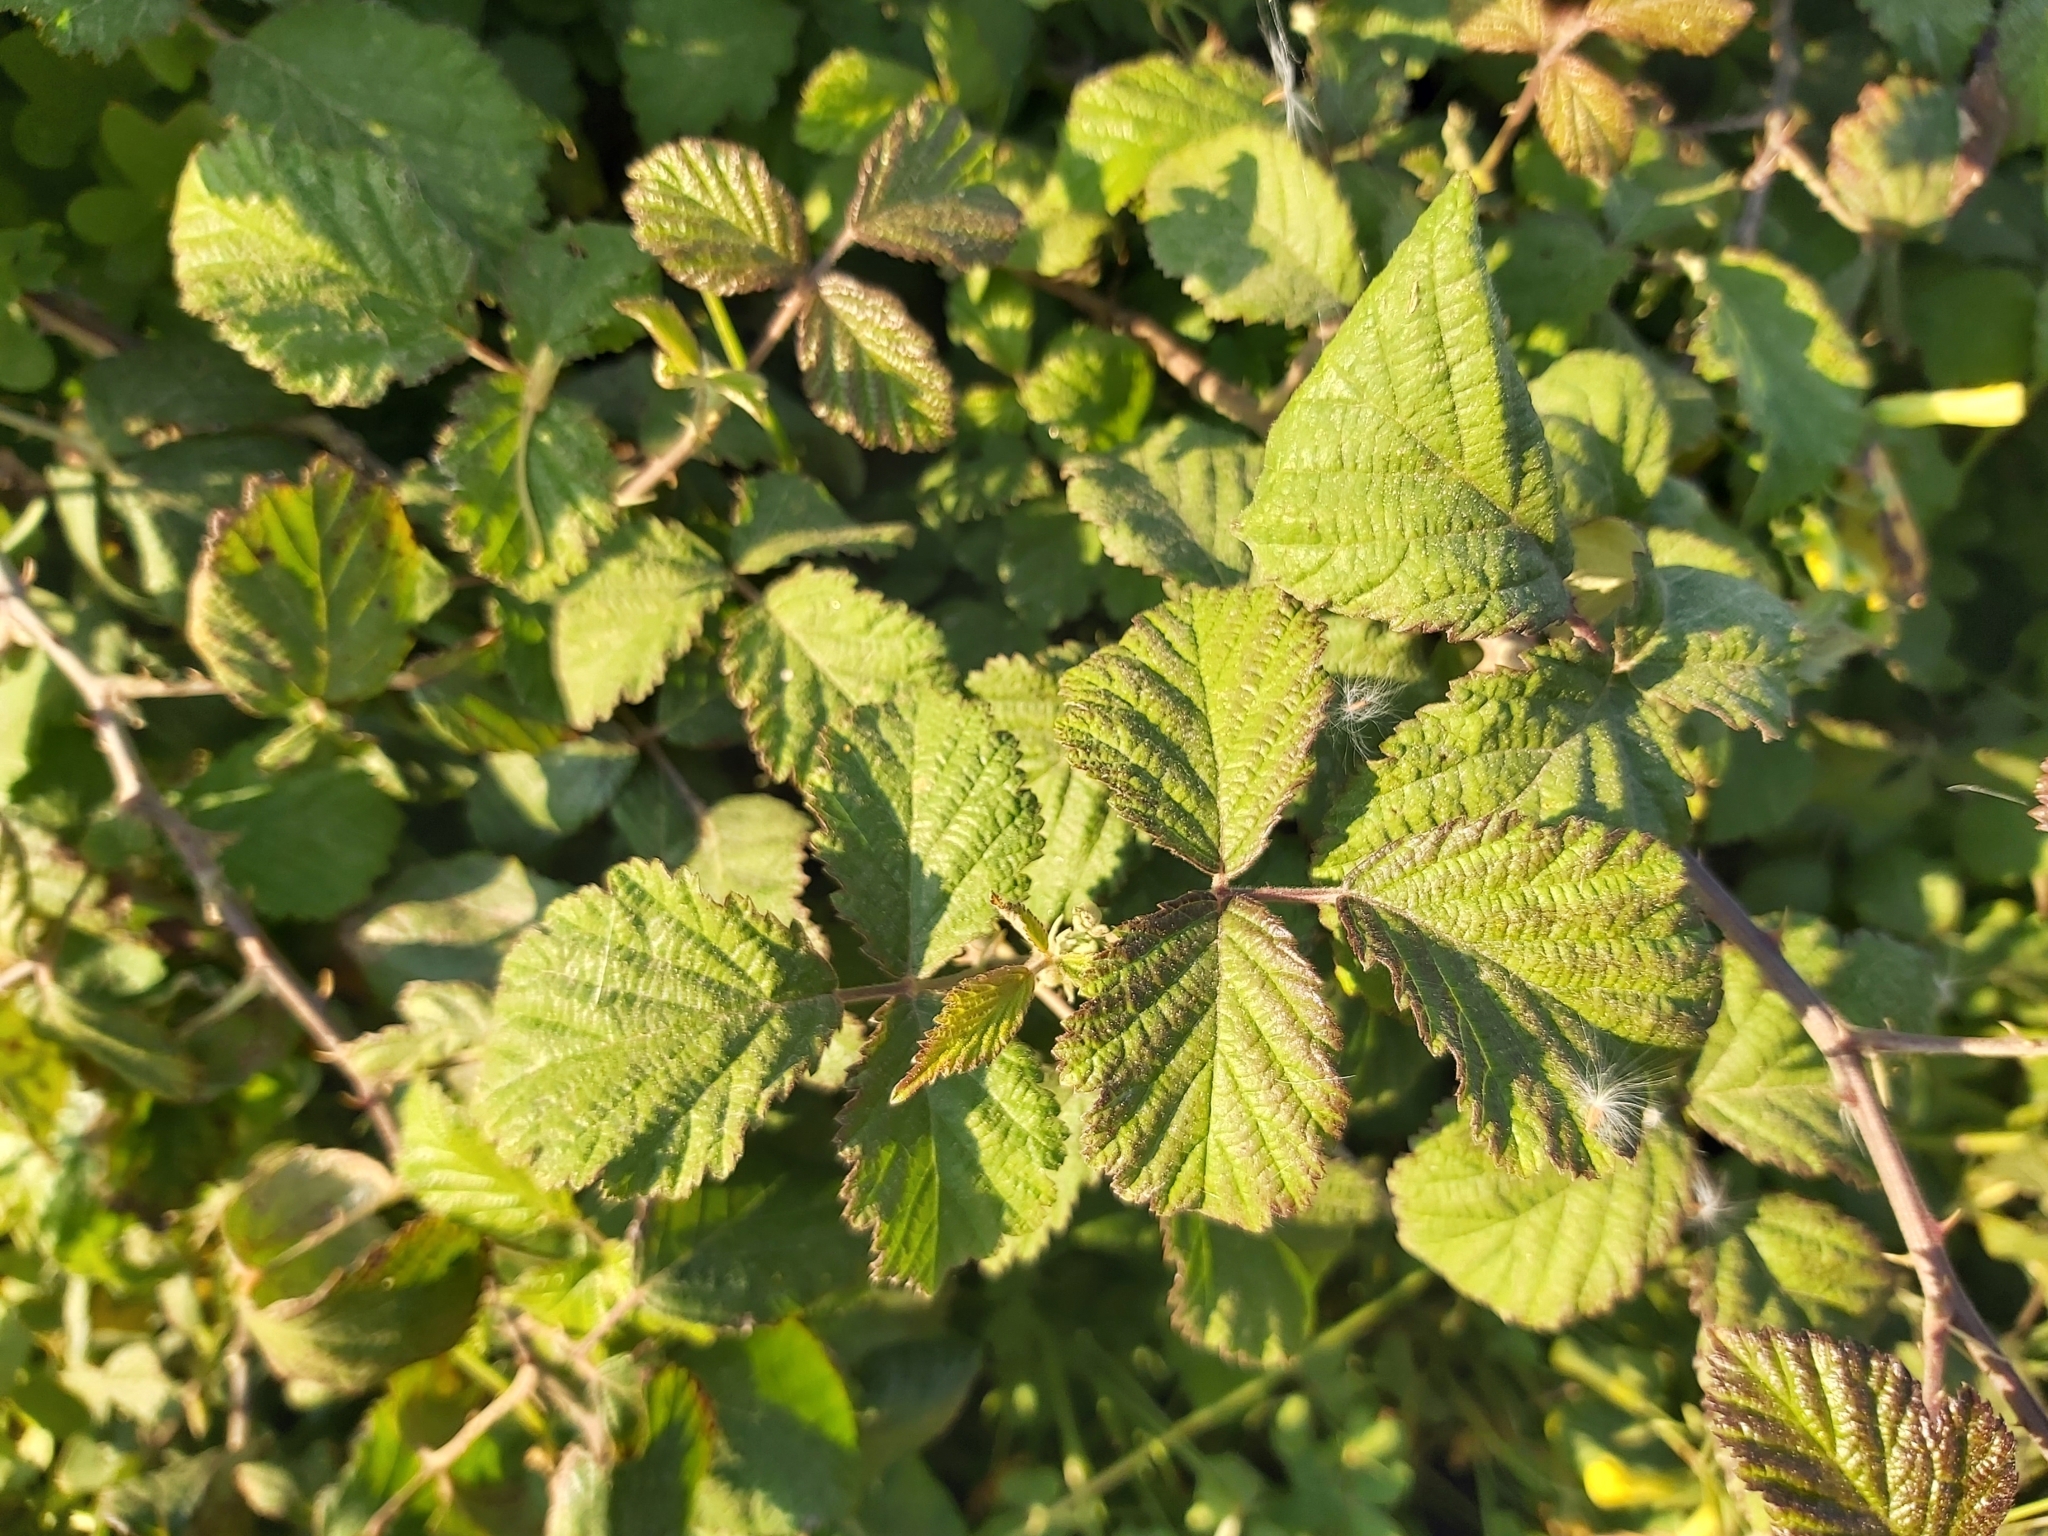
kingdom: Plantae
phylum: Tracheophyta
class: Magnoliopsida
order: Rosales
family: Rosaceae
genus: Rubus
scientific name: Rubus ulmifolius
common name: Elmleaf blackberry
